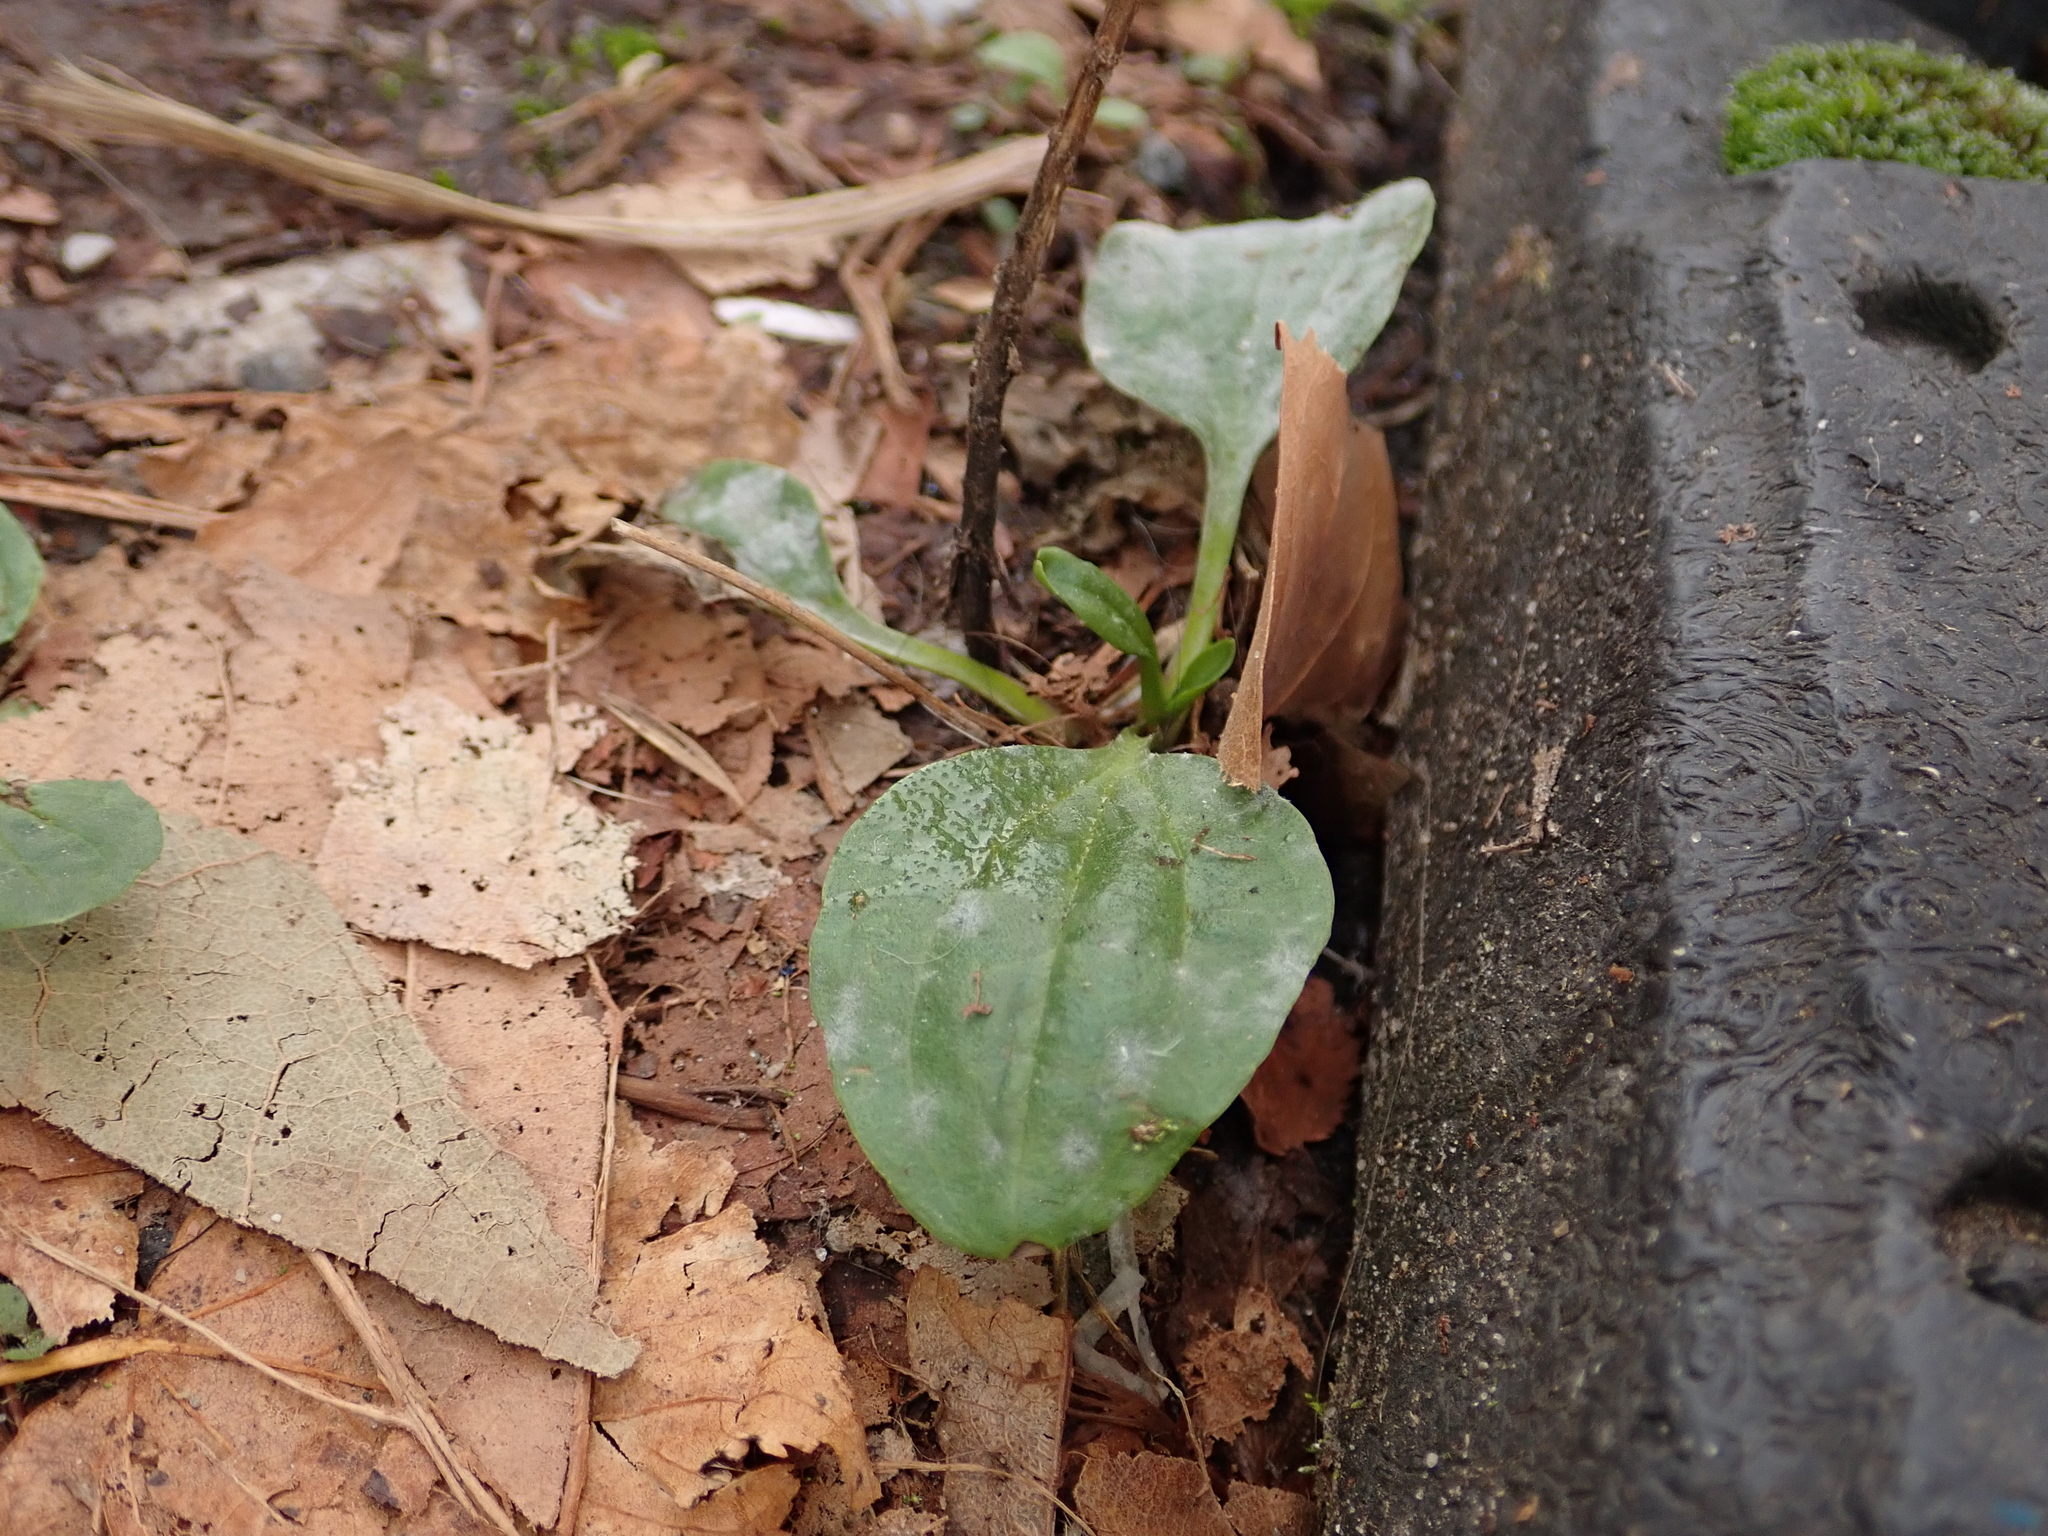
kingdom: Plantae
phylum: Tracheophyta
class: Magnoliopsida
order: Lamiales
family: Plantaginaceae
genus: Plantago
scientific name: Plantago major
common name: Common plantain
